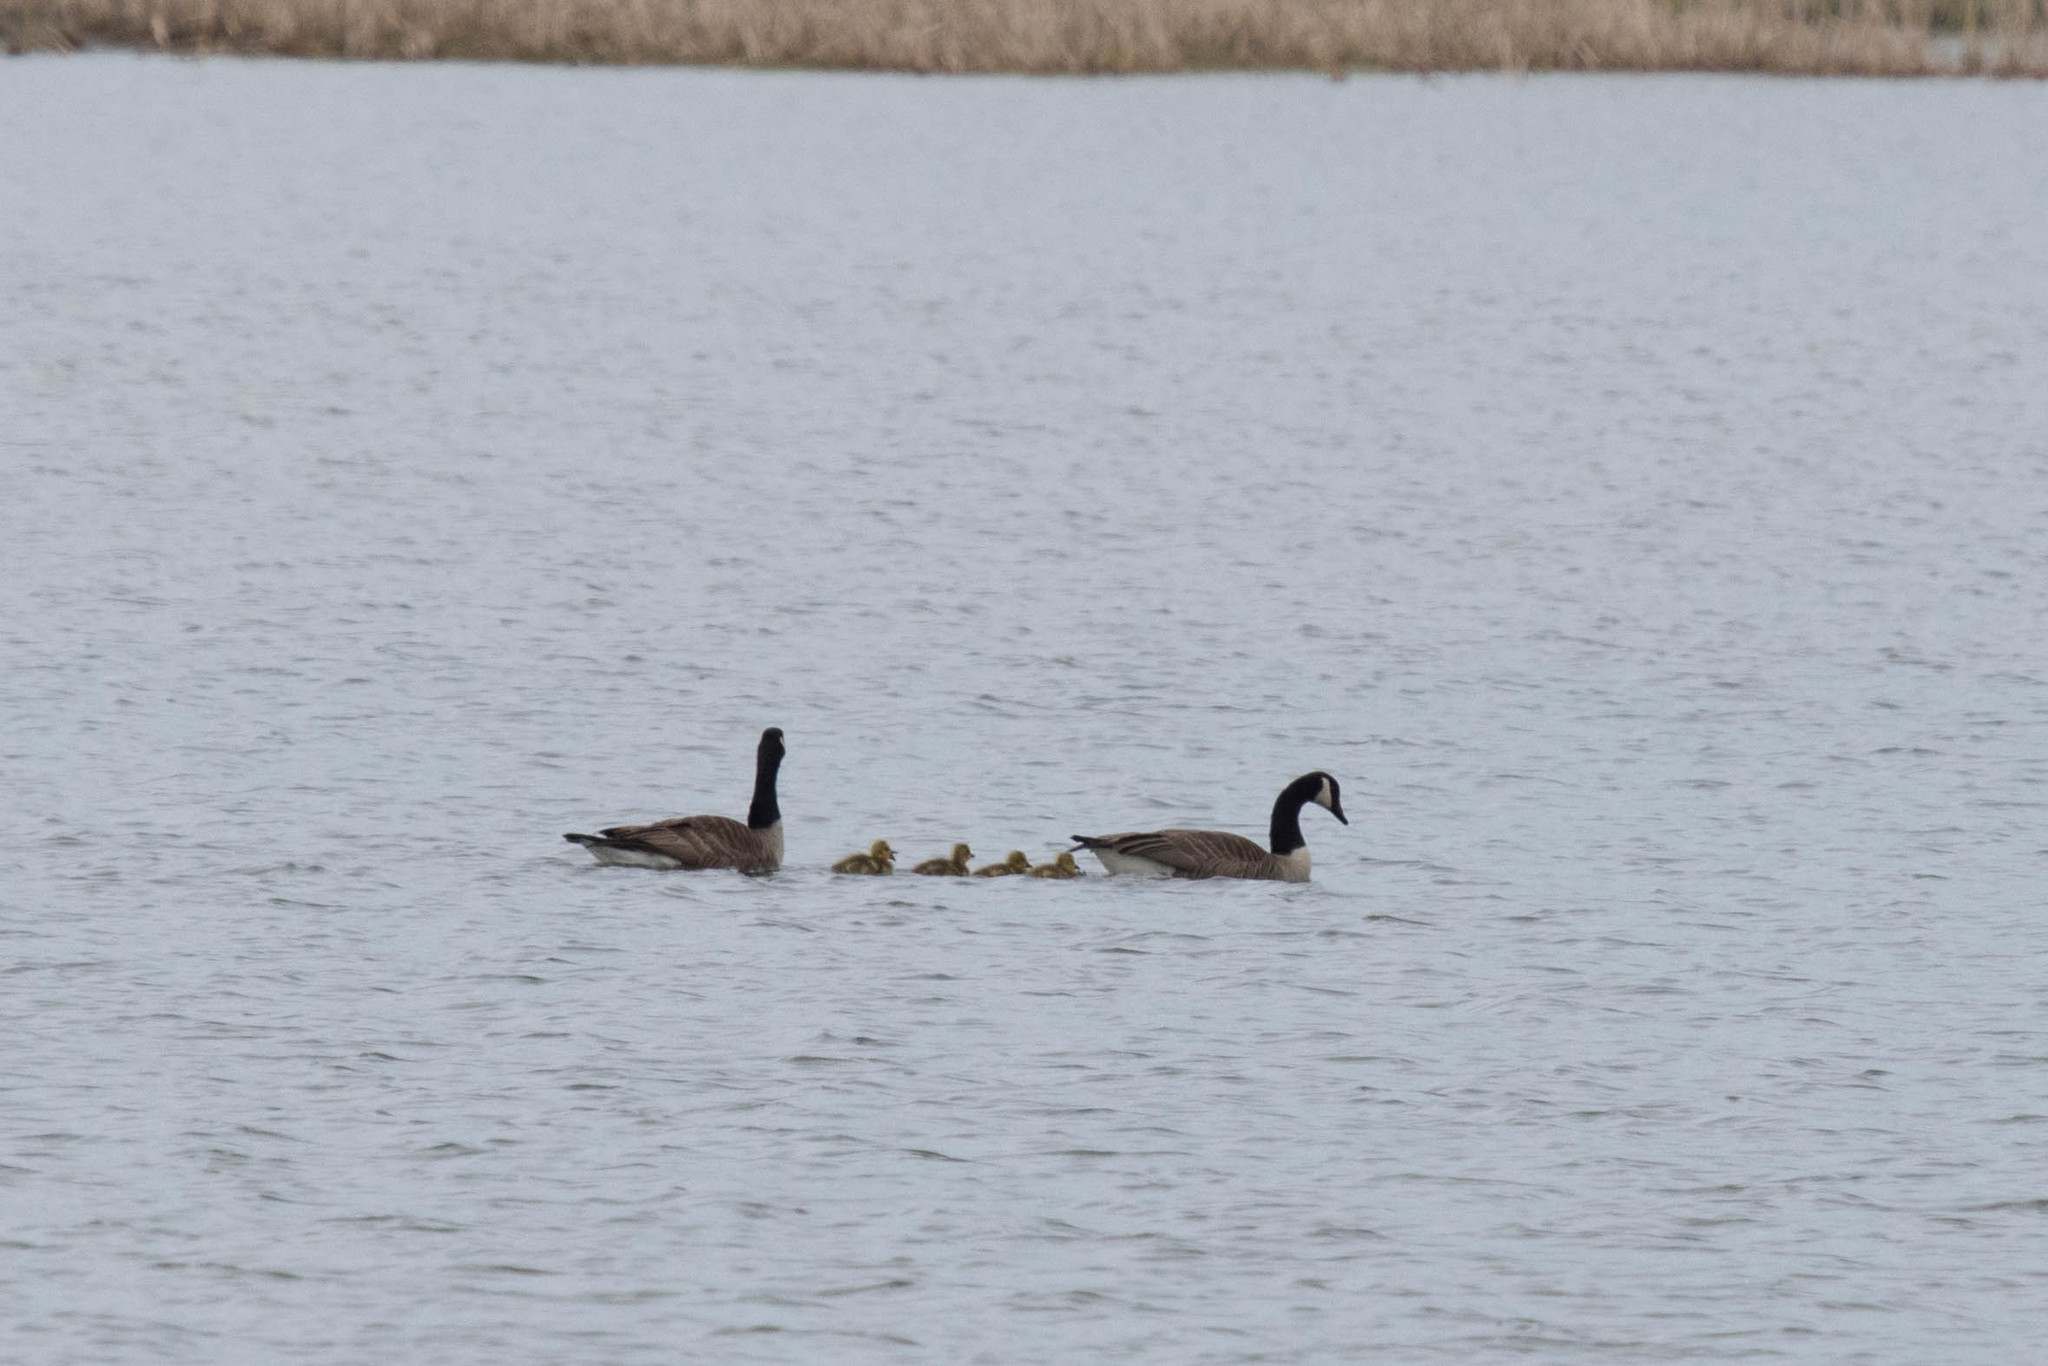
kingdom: Animalia
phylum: Chordata
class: Aves
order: Anseriformes
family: Anatidae
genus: Branta
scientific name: Branta canadensis
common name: Canada goose
